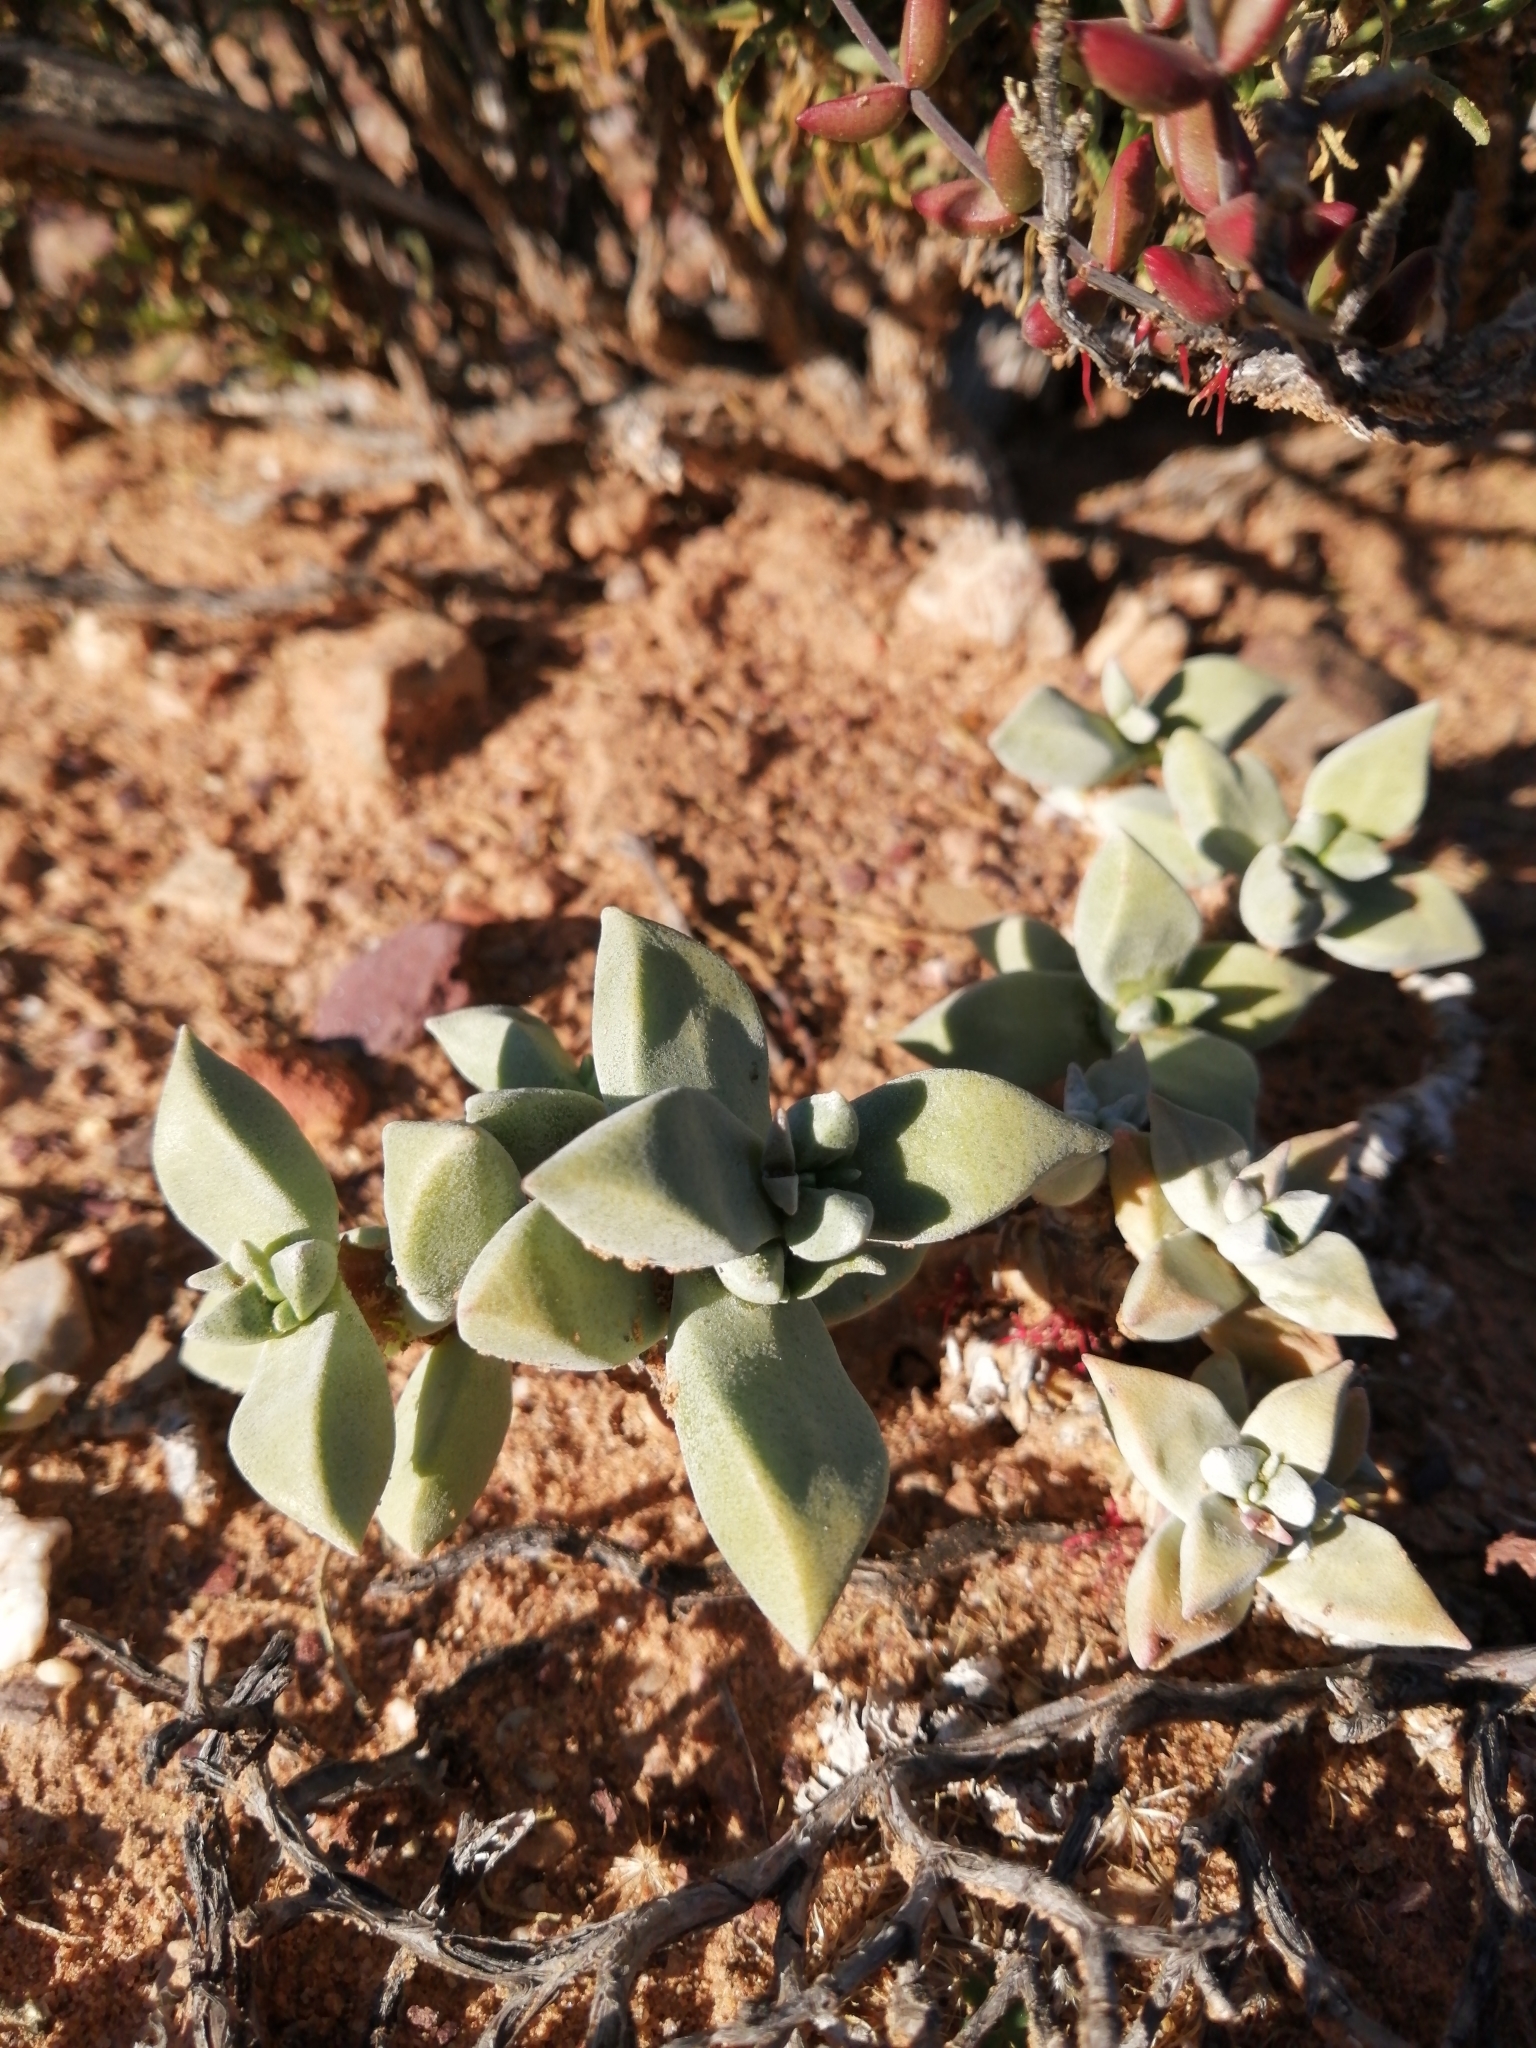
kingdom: Plantae
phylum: Tracheophyta
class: Magnoliopsida
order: Saxifragales
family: Crassulaceae
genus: Crassula
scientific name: Crassula deltoidea
